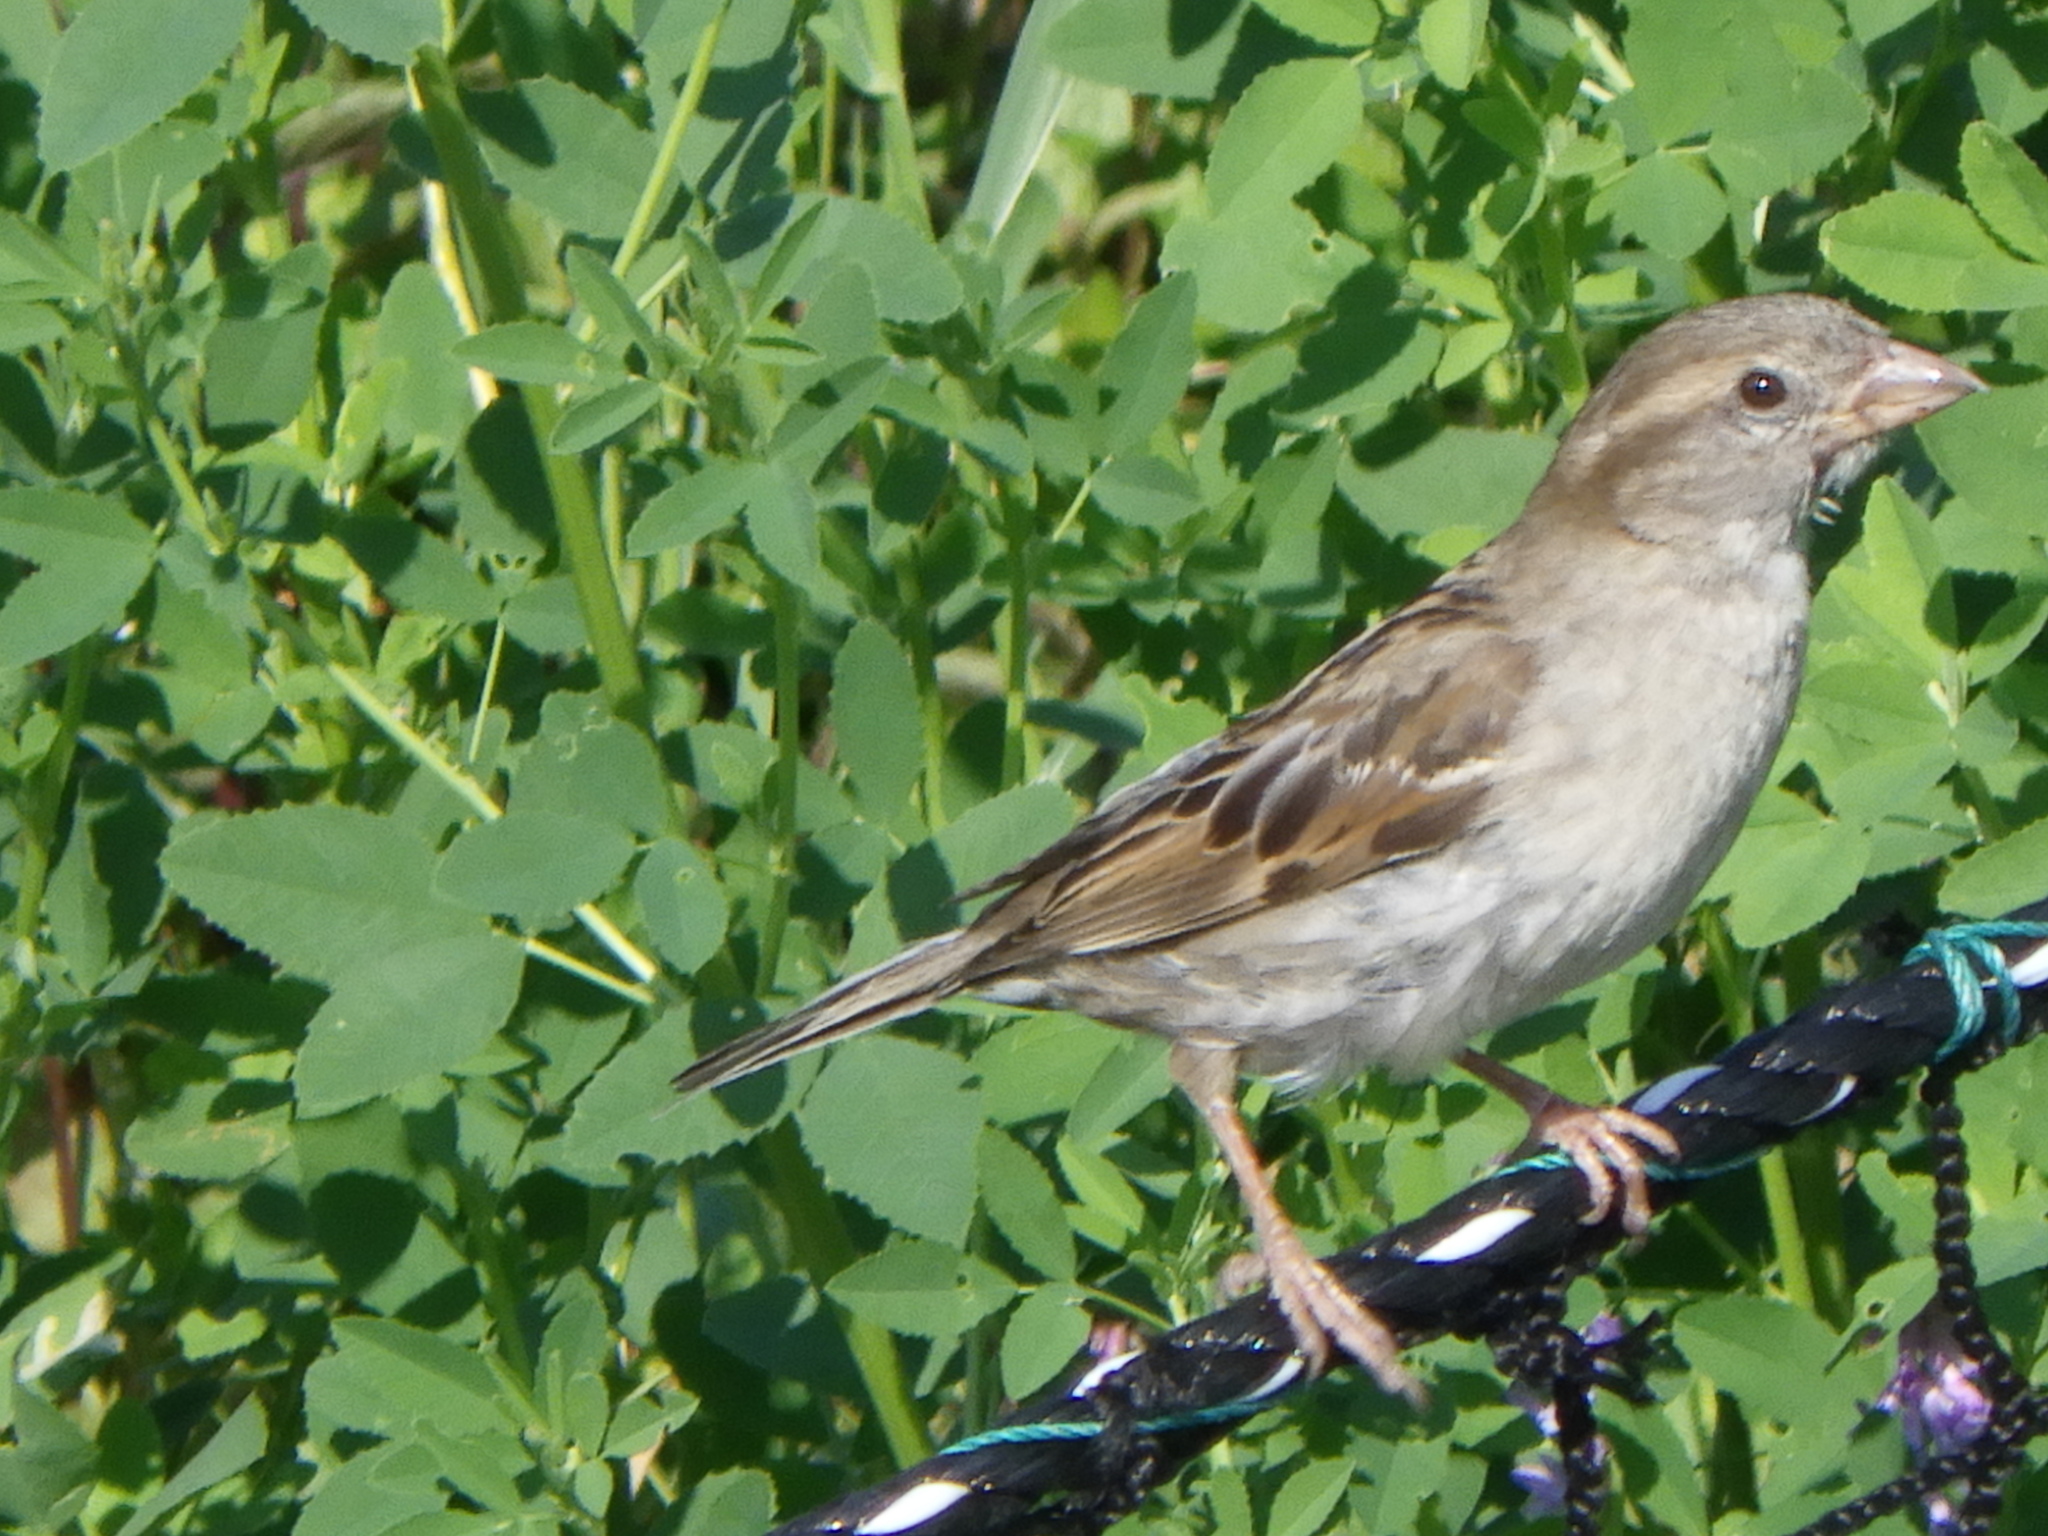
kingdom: Animalia
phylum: Chordata
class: Aves
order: Passeriformes
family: Passeridae
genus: Passer
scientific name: Passer domesticus
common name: House sparrow
